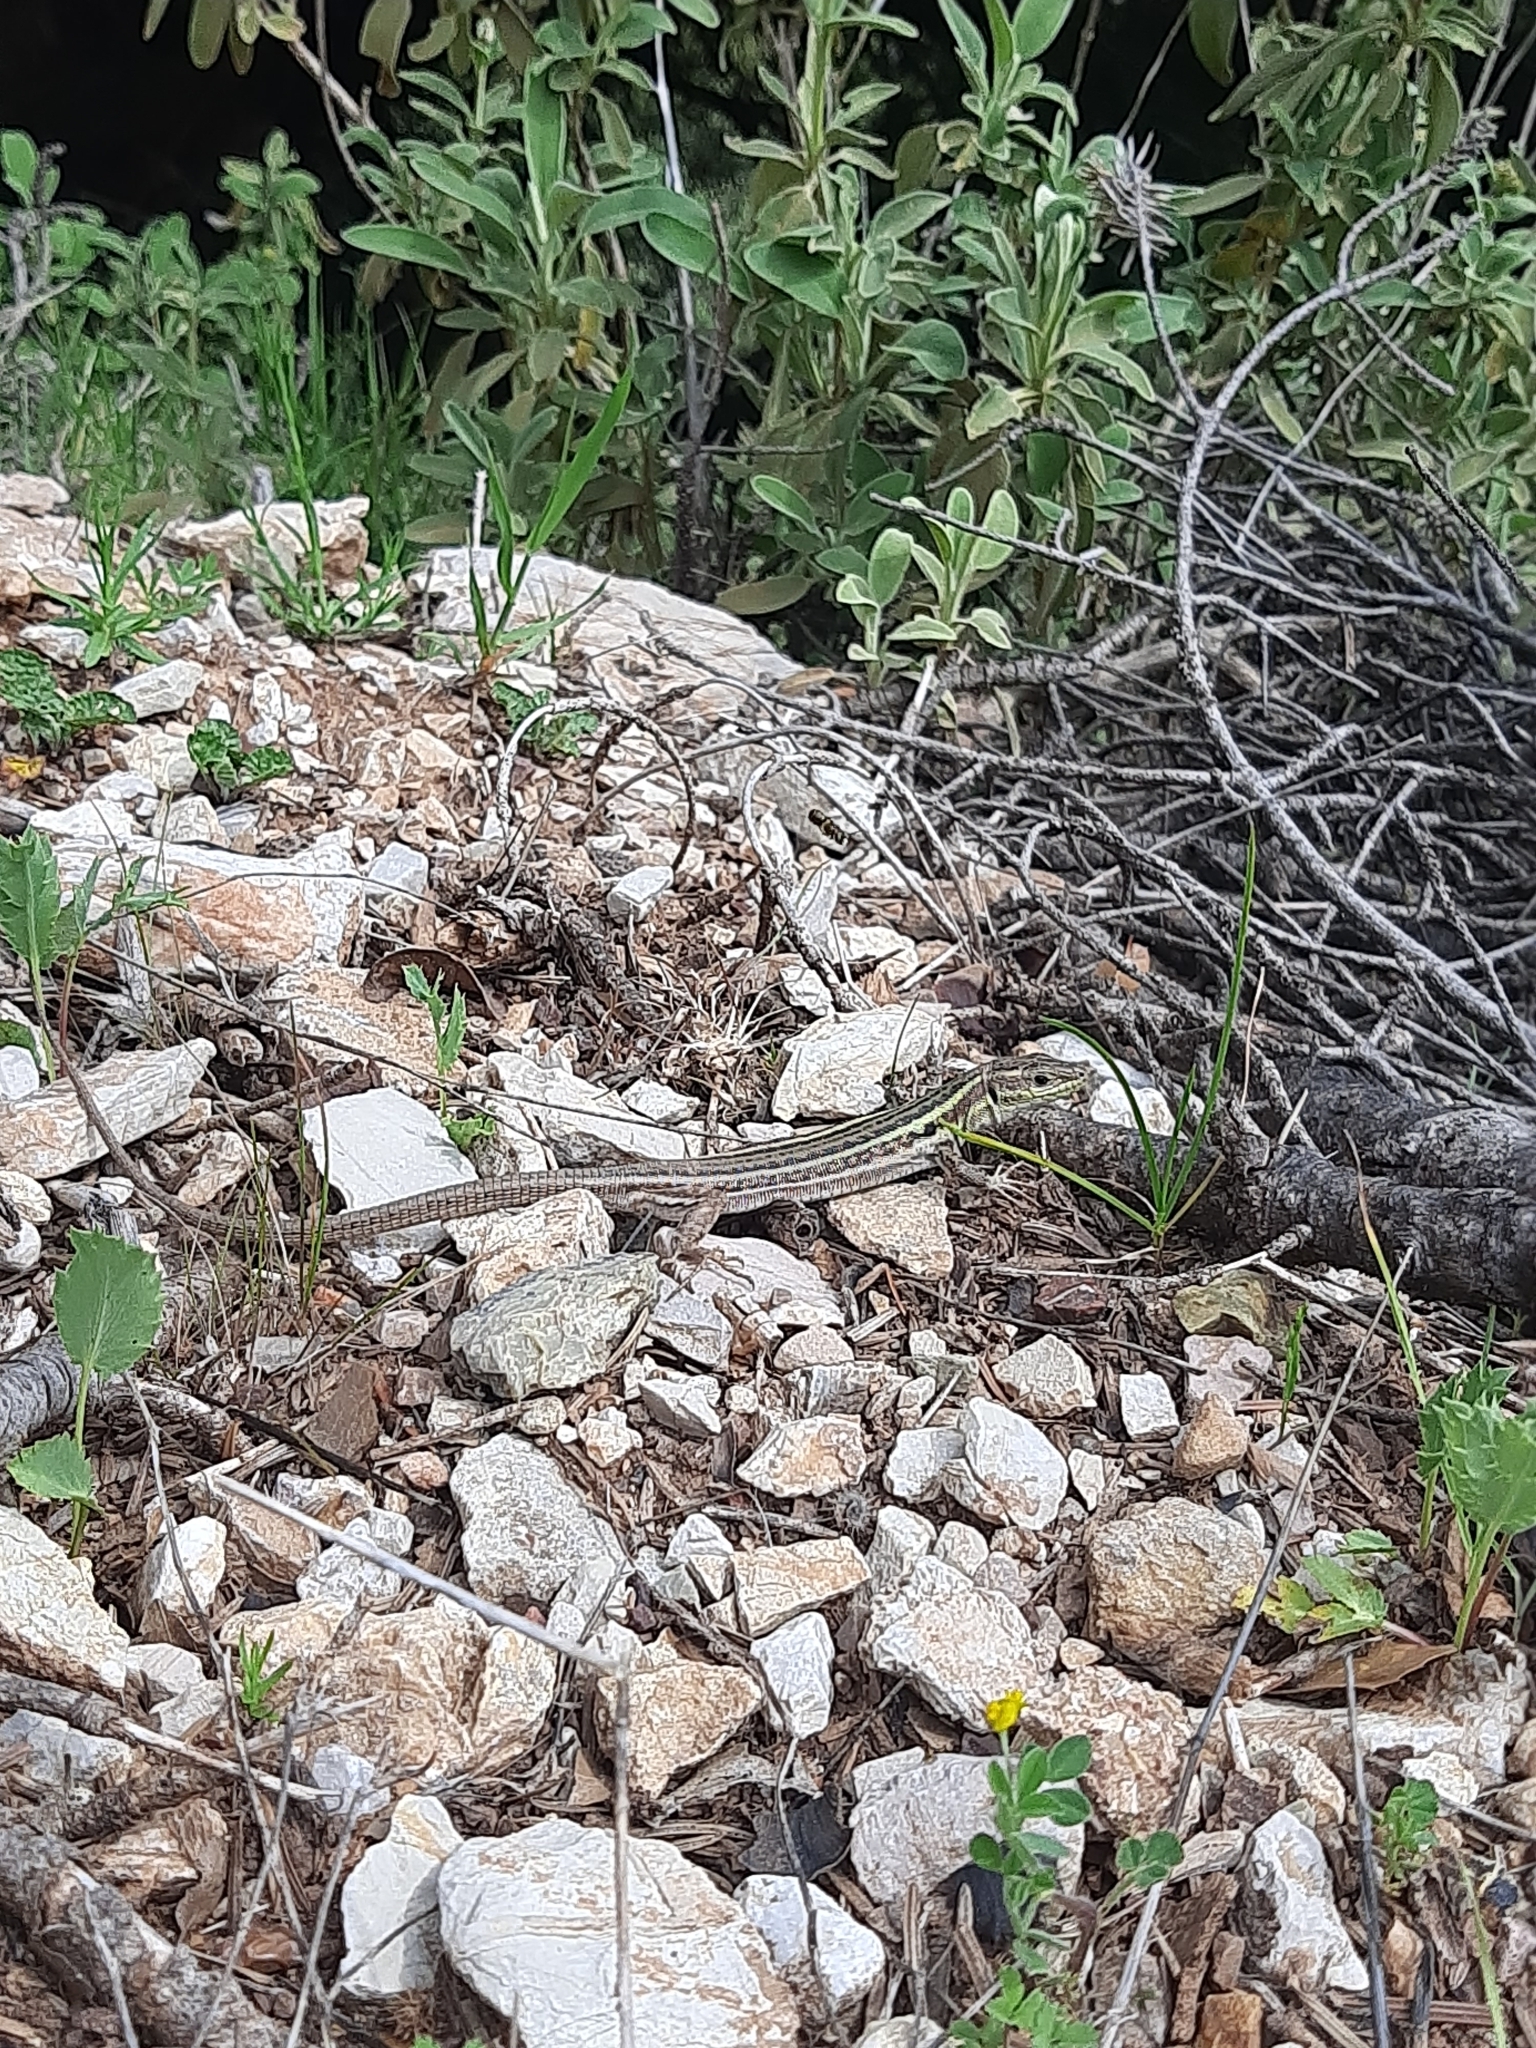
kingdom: Animalia
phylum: Chordata
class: Squamata
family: Lacertidae
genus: Podarcis
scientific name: Podarcis peloponnesiacus
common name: Peloponnese wall lizard
